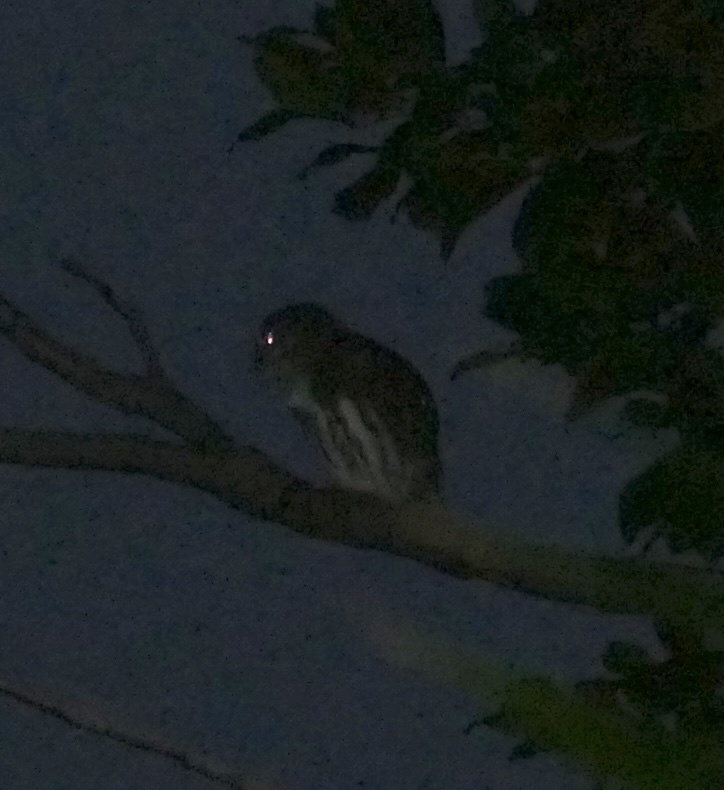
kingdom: Animalia
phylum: Chordata
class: Aves
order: Strigiformes
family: Strigidae
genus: Glaucidium
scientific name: Glaucidium brasilianum
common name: Ferruginous pygmy-owl
